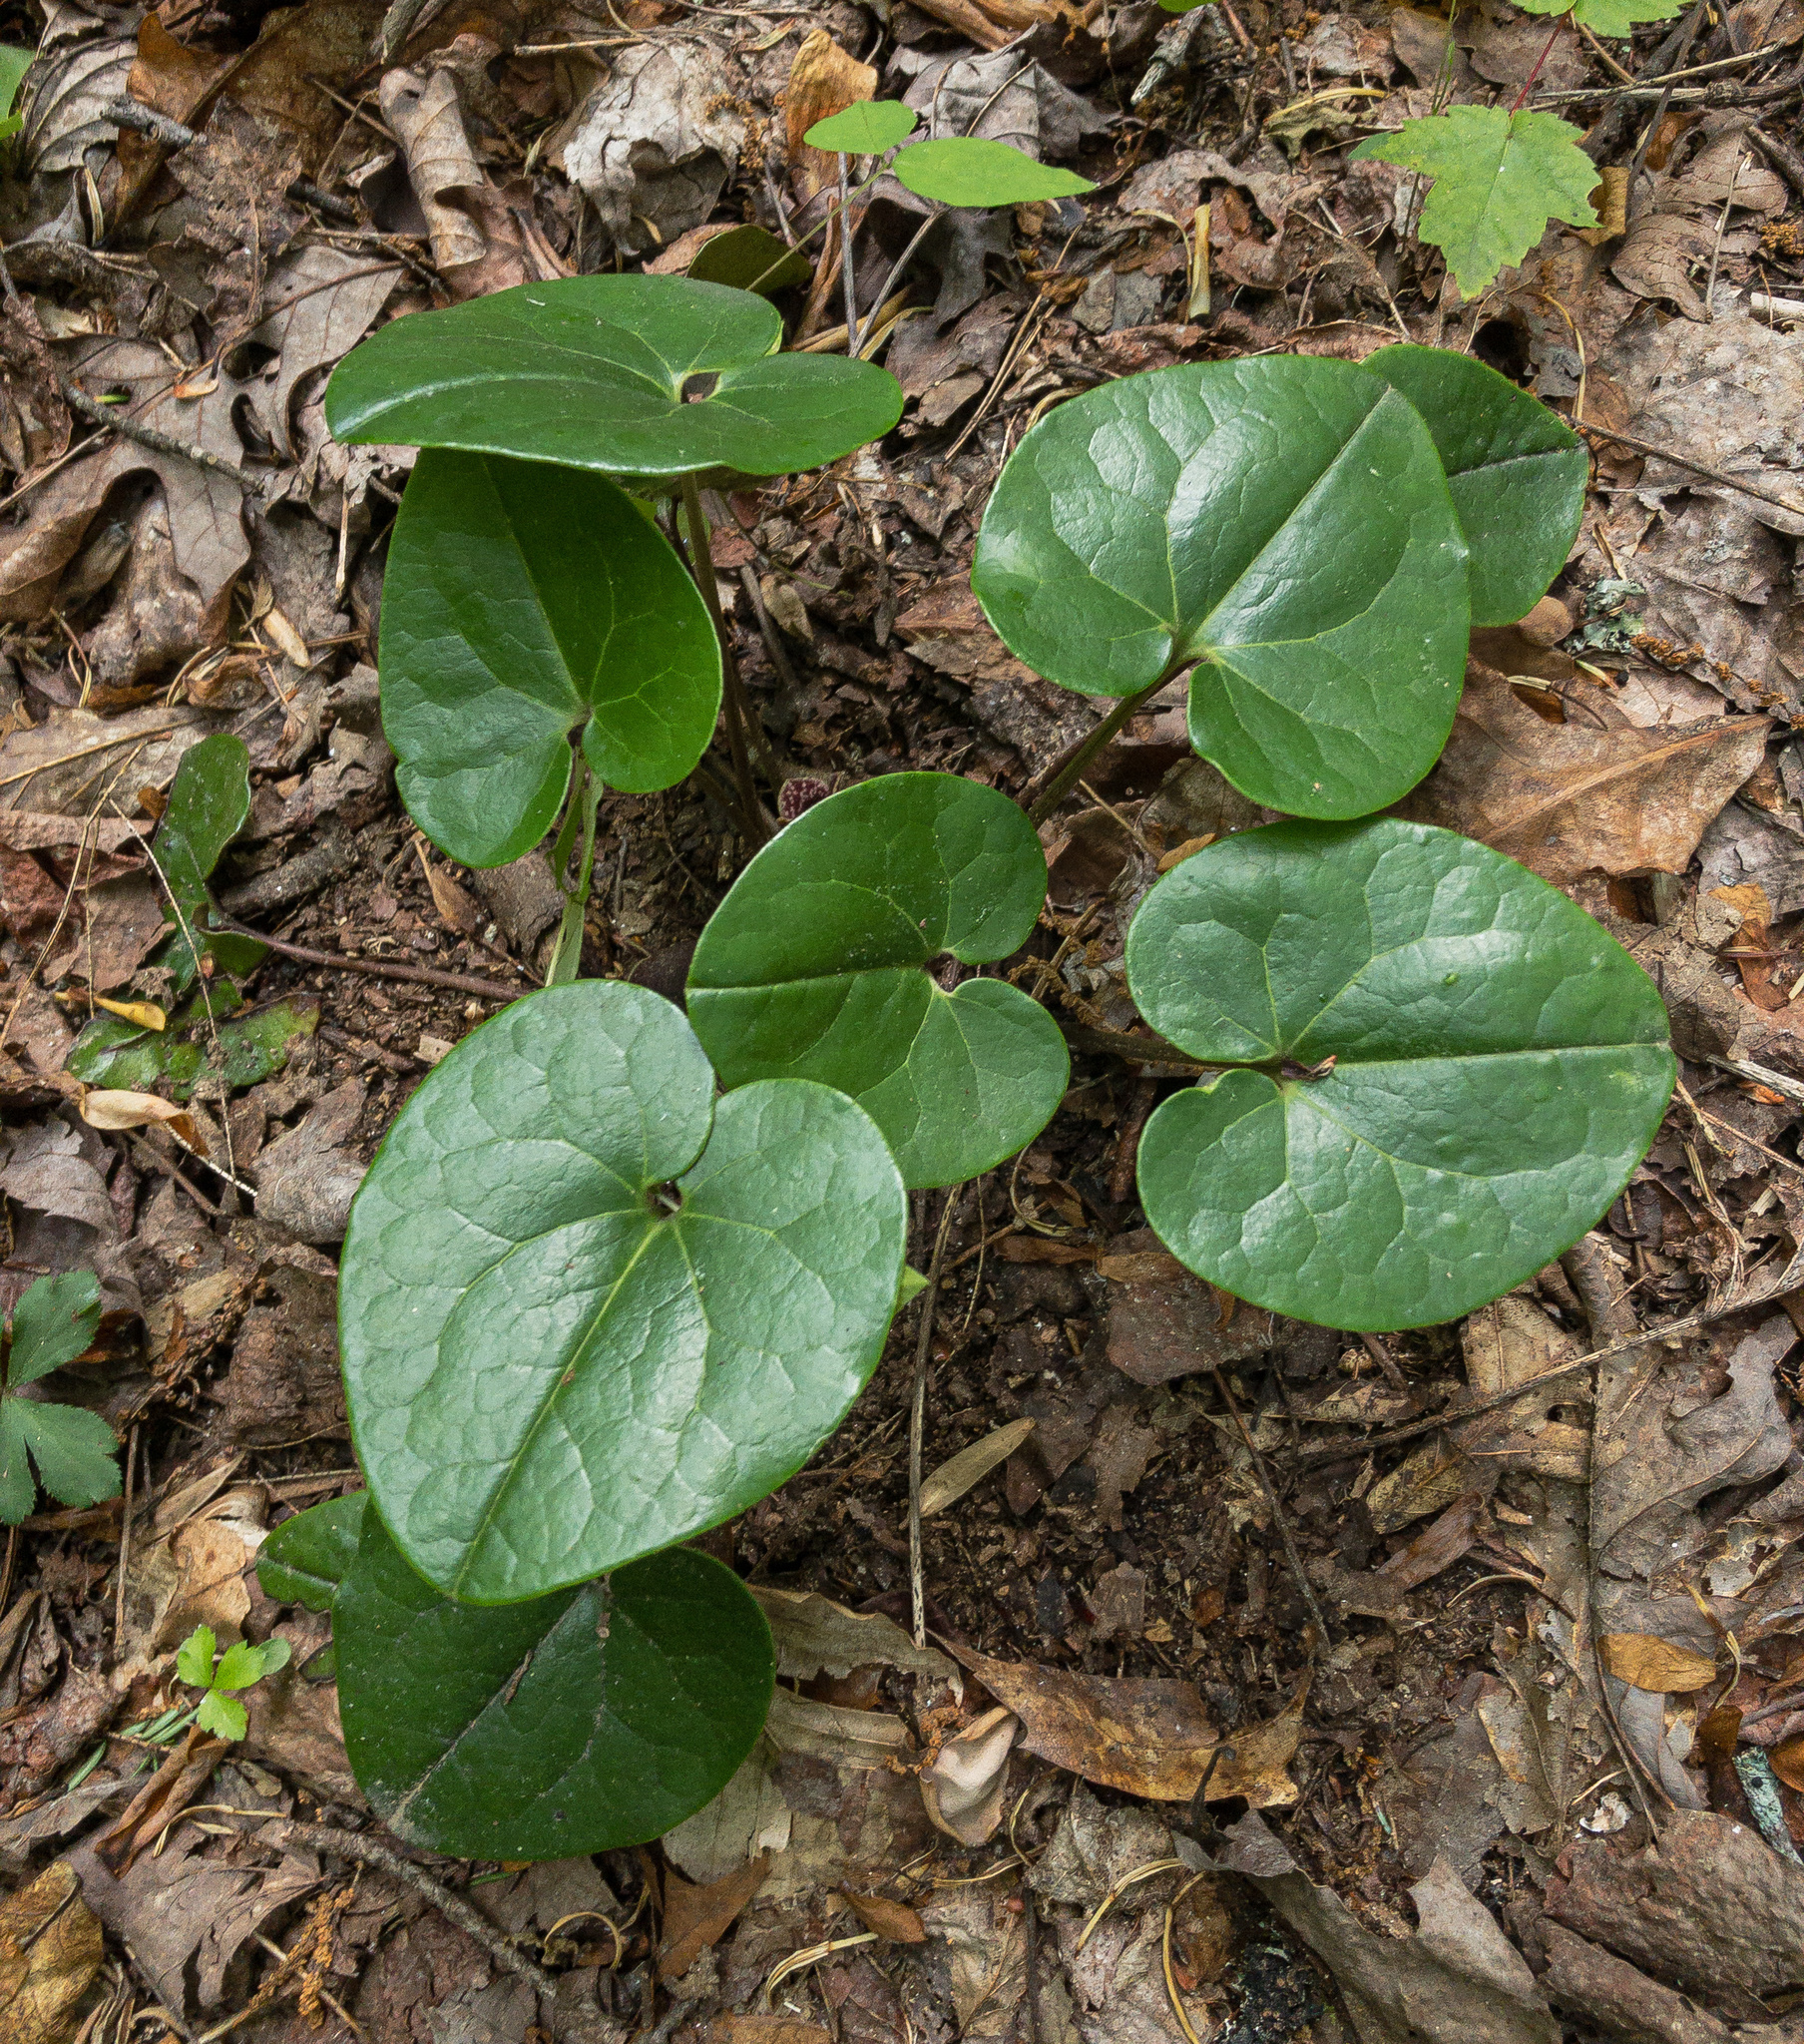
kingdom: Plantae
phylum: Tracheophyta
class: Magnoliopsida
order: Piperales
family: Aristolochiaceae
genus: Hexastylis
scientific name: Hexastylis rhombiformis
